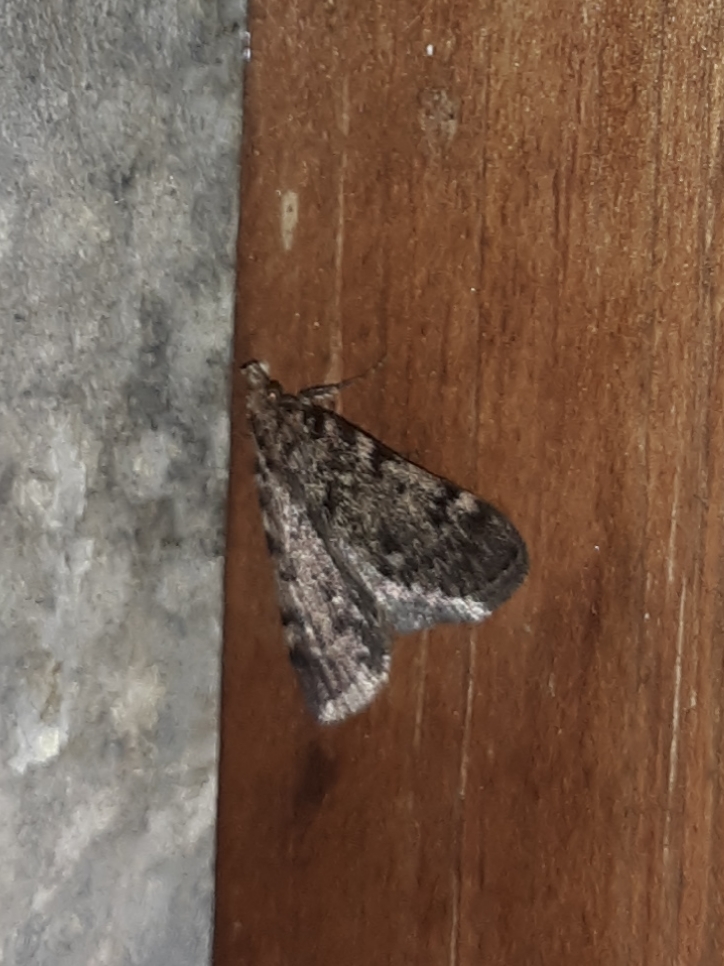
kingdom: Animalia
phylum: Arthropoda
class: Insecta
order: Lepidoptera
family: Pyralidae
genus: Aglossa
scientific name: Aglossa pinguinalis
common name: Large tabby
